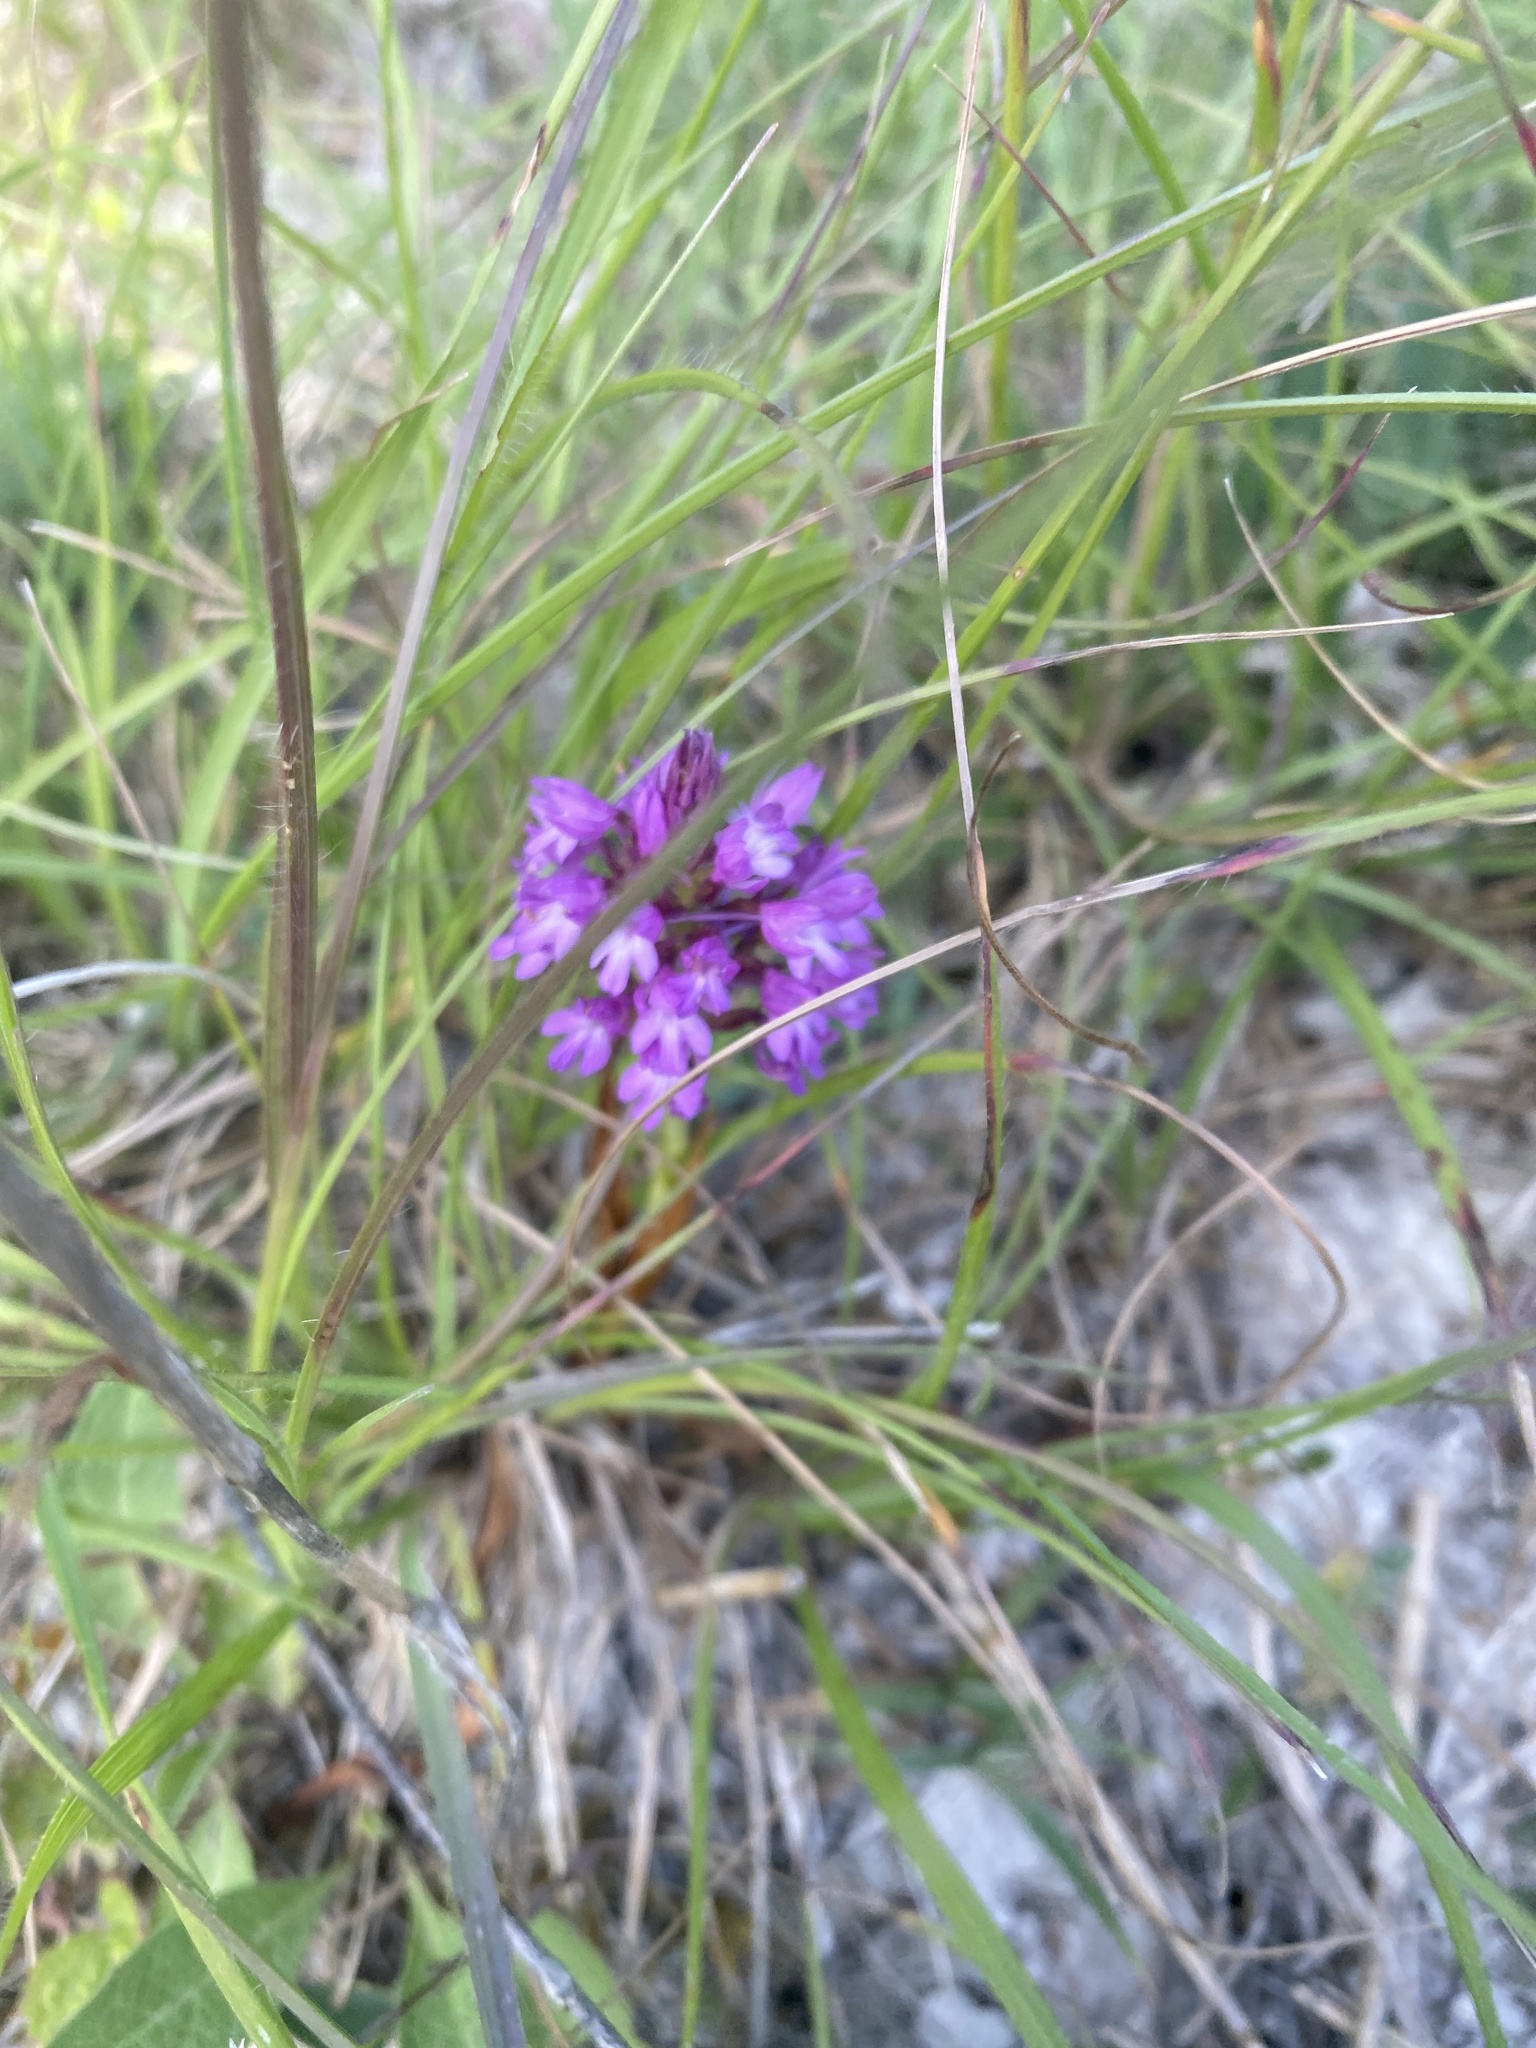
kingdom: Plantae
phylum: Tracheophyta
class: Liliopsida
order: Asparagales
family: Orchidaceae
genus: Anacamptis
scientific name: Anacamptis pyramidalis
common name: Pyramidal orchid
